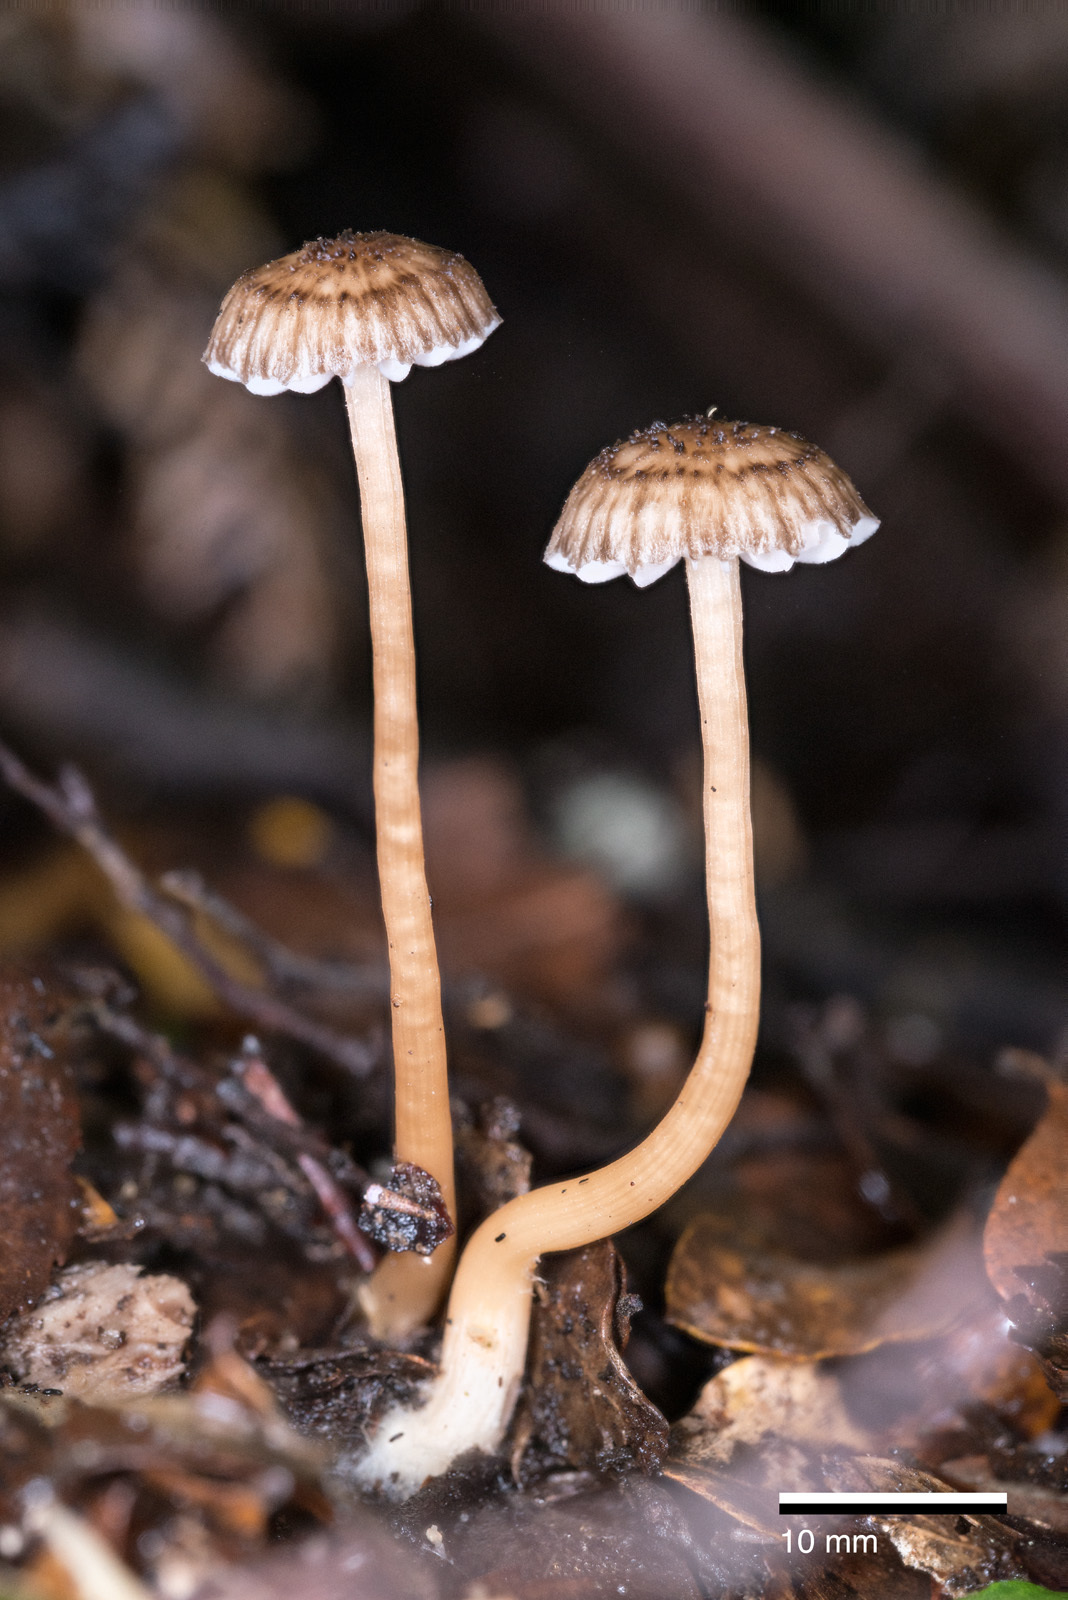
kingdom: Fungi
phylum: Basidiomycota
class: Agaricomycetes
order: Agaricales
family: Hydnangiaceae
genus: Laccaria
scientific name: Laccaria masoniae
